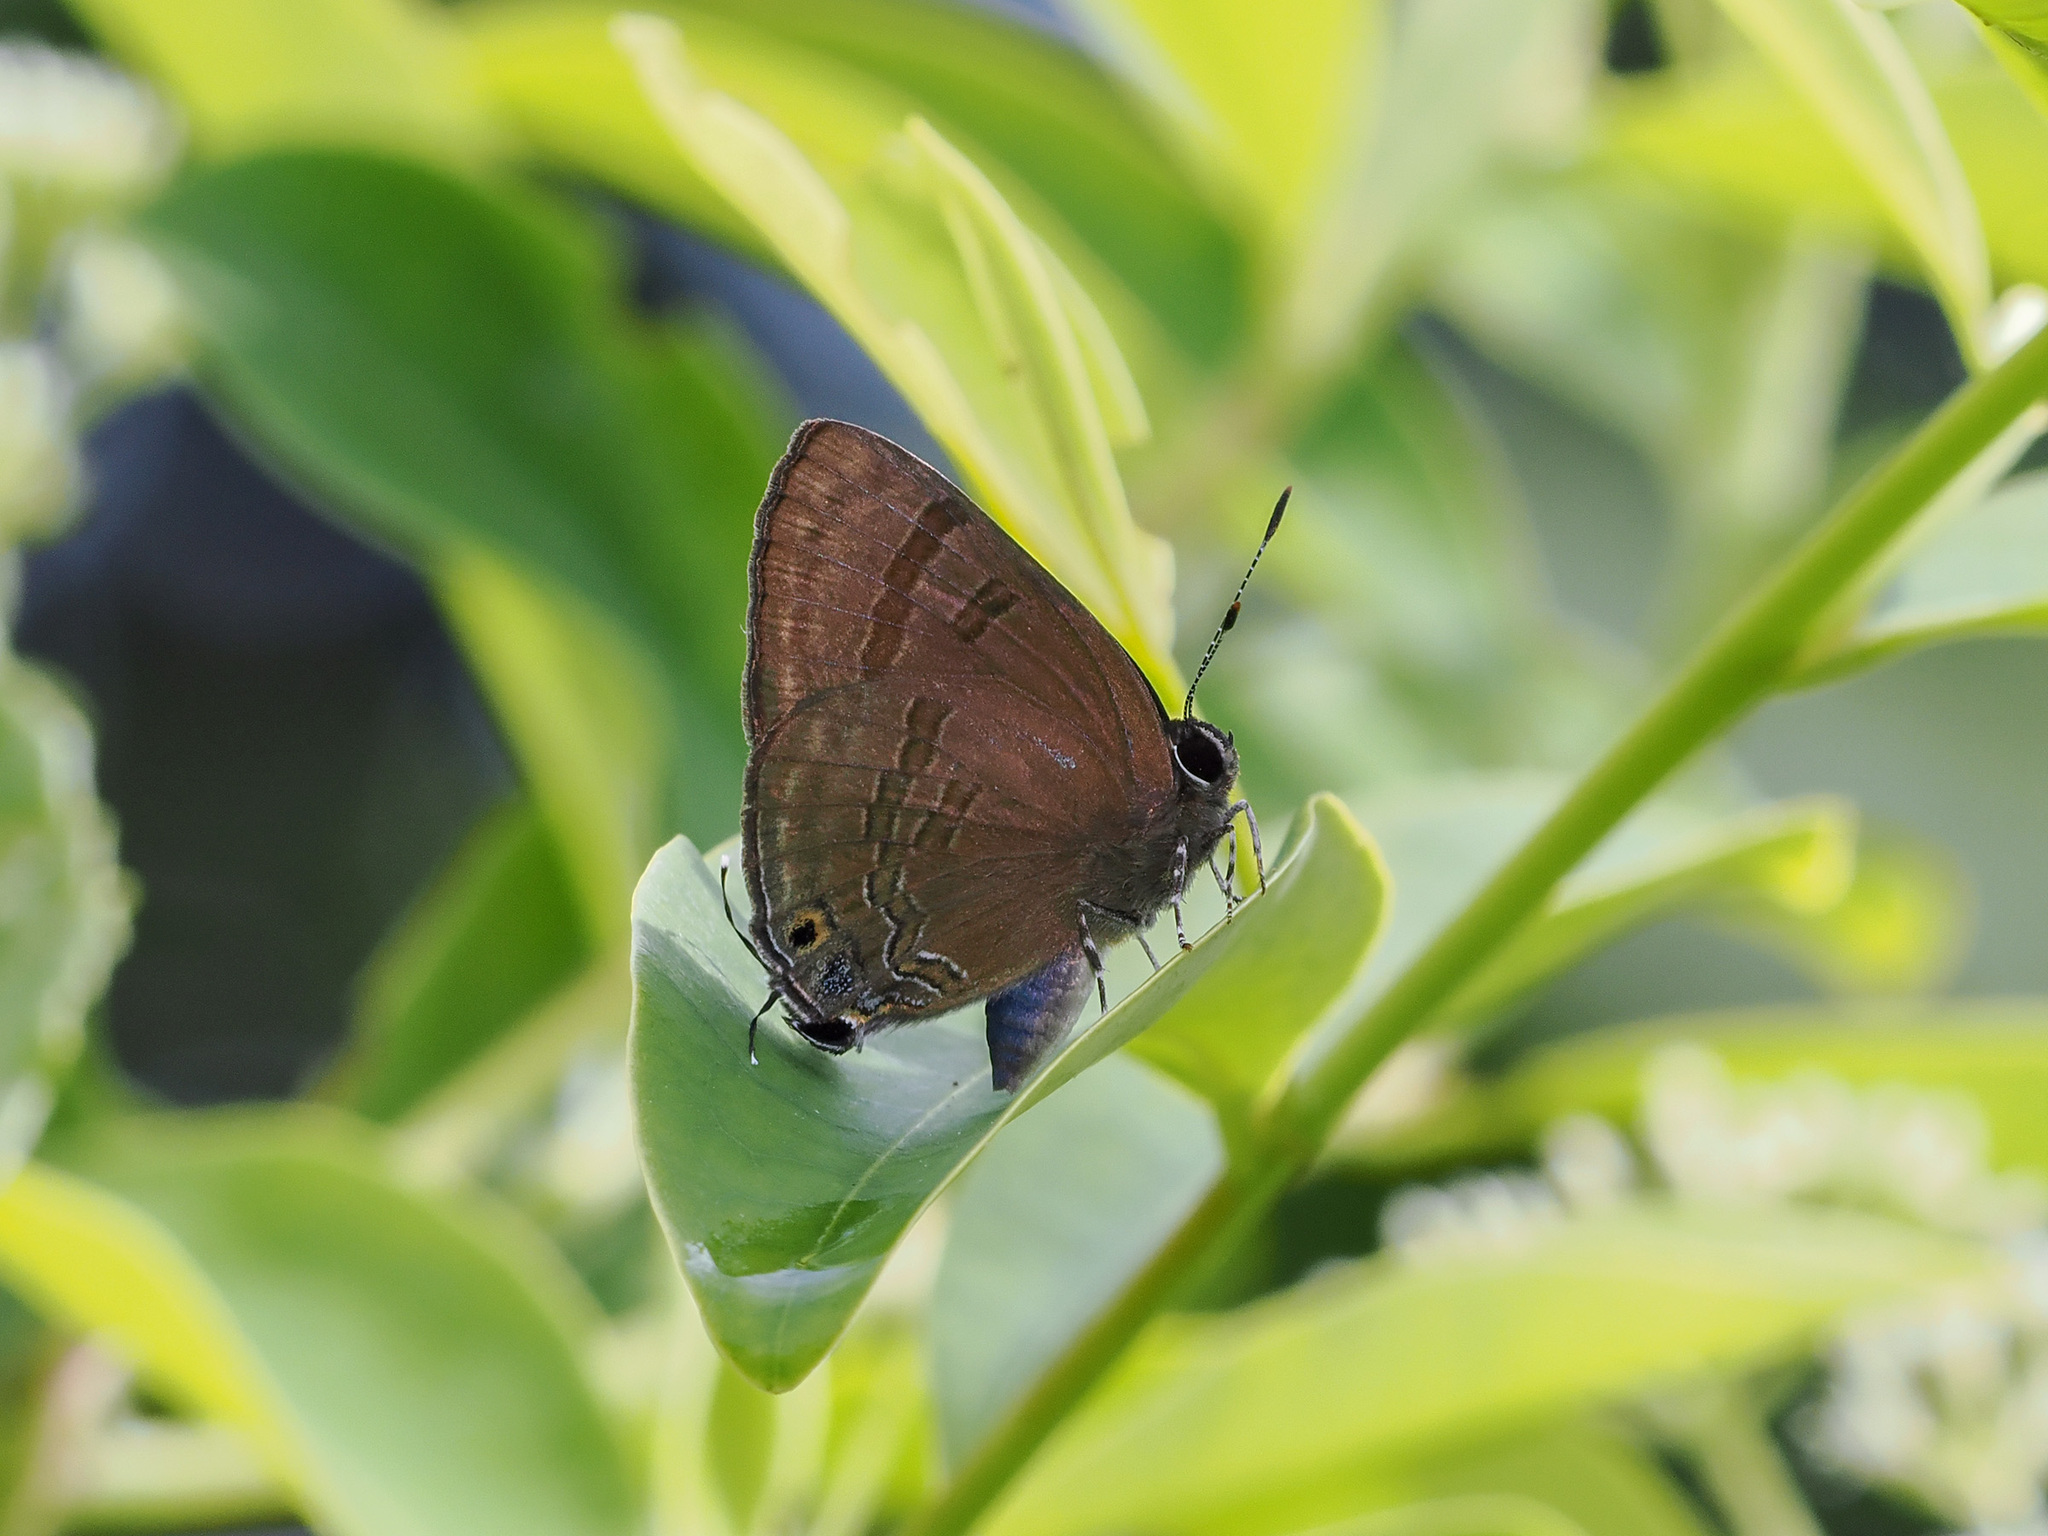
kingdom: Animalia
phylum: Arthropoda
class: Insecta
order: Lepidoptera
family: Lycaenidae
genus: Rapala
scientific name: Rapala varuna
